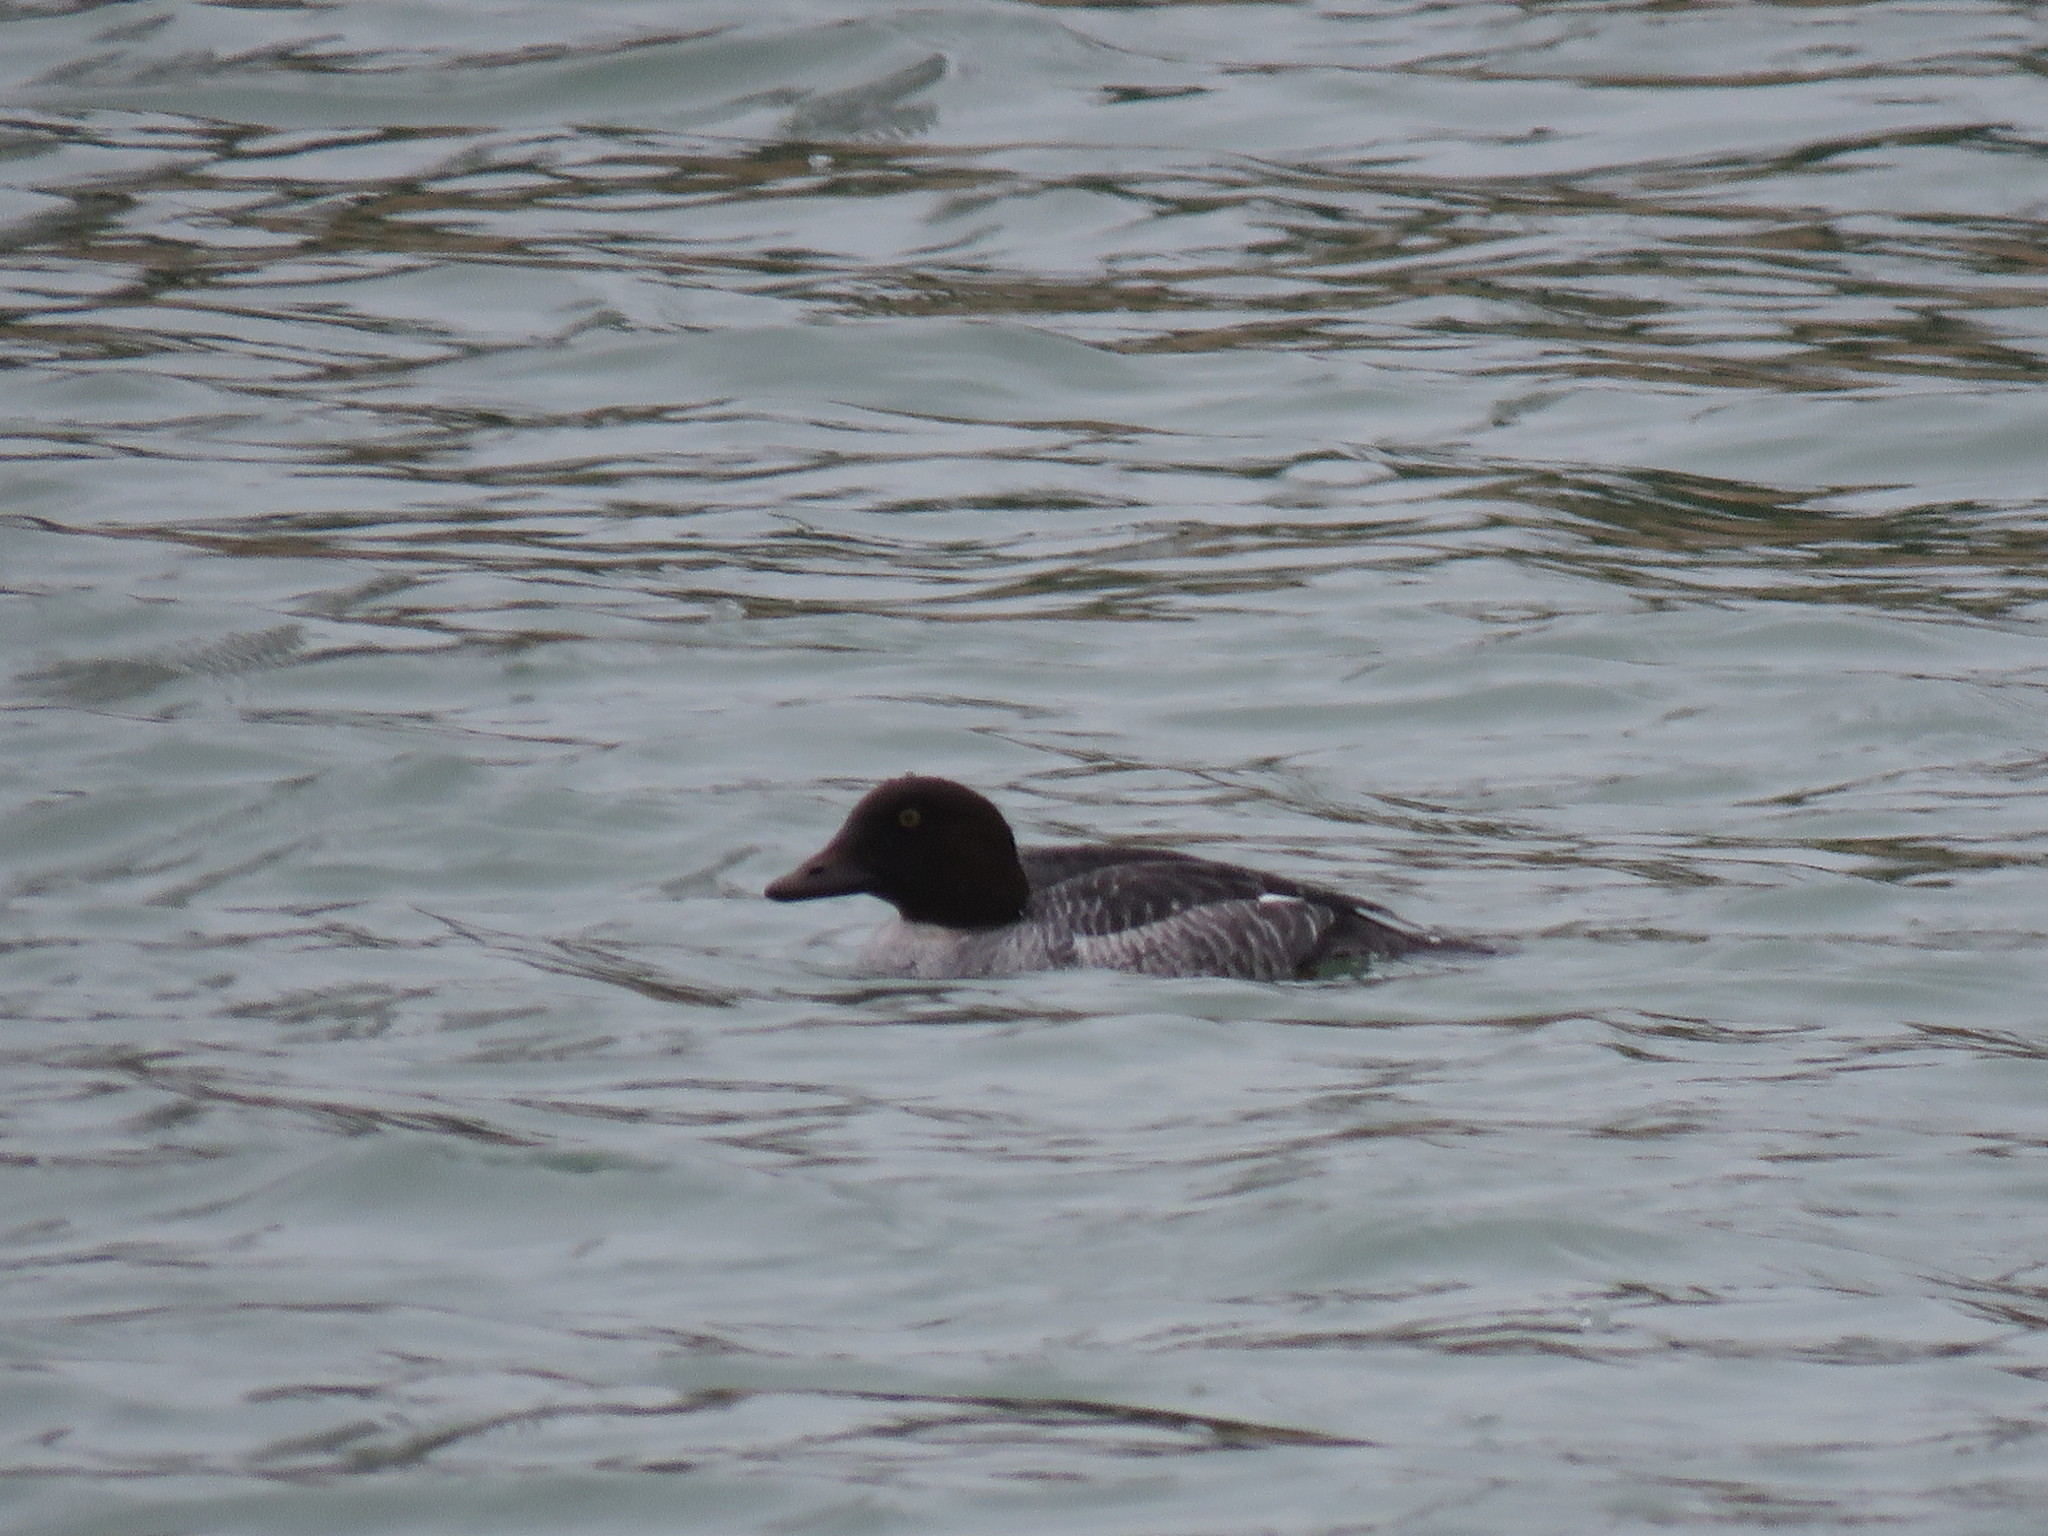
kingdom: Animalia
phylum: Chordata
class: Aves
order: Anseriformes
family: Anatidae
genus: Bucephala
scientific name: Bucephala clangula
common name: Common goldeneye
